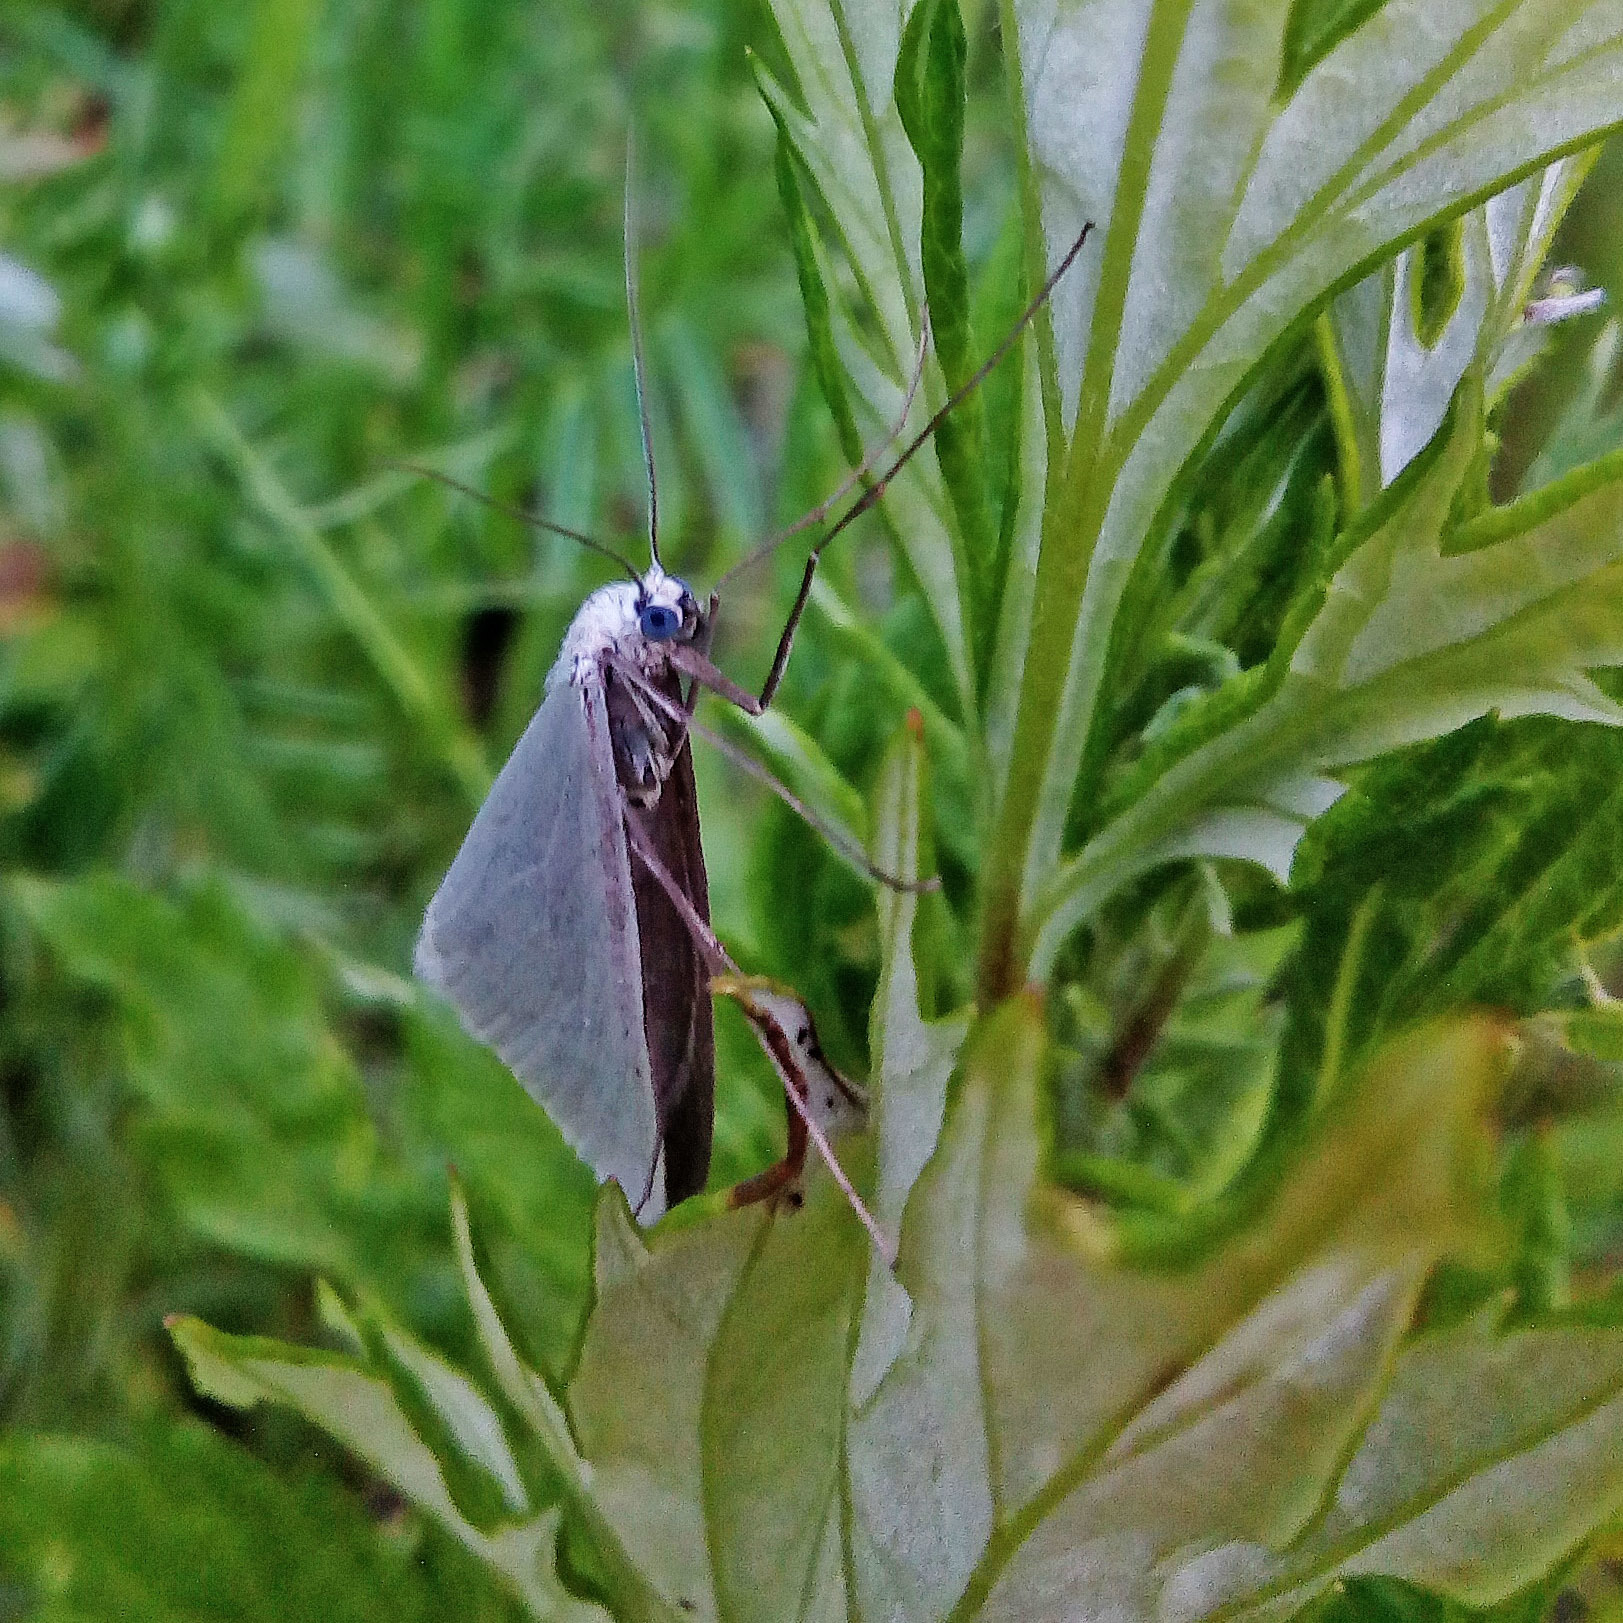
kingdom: Animalia
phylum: Arthropoda
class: Insecta
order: Lepidoptera
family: Geometridae
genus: Gypsochroa
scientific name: Gypsochroa renitidata
